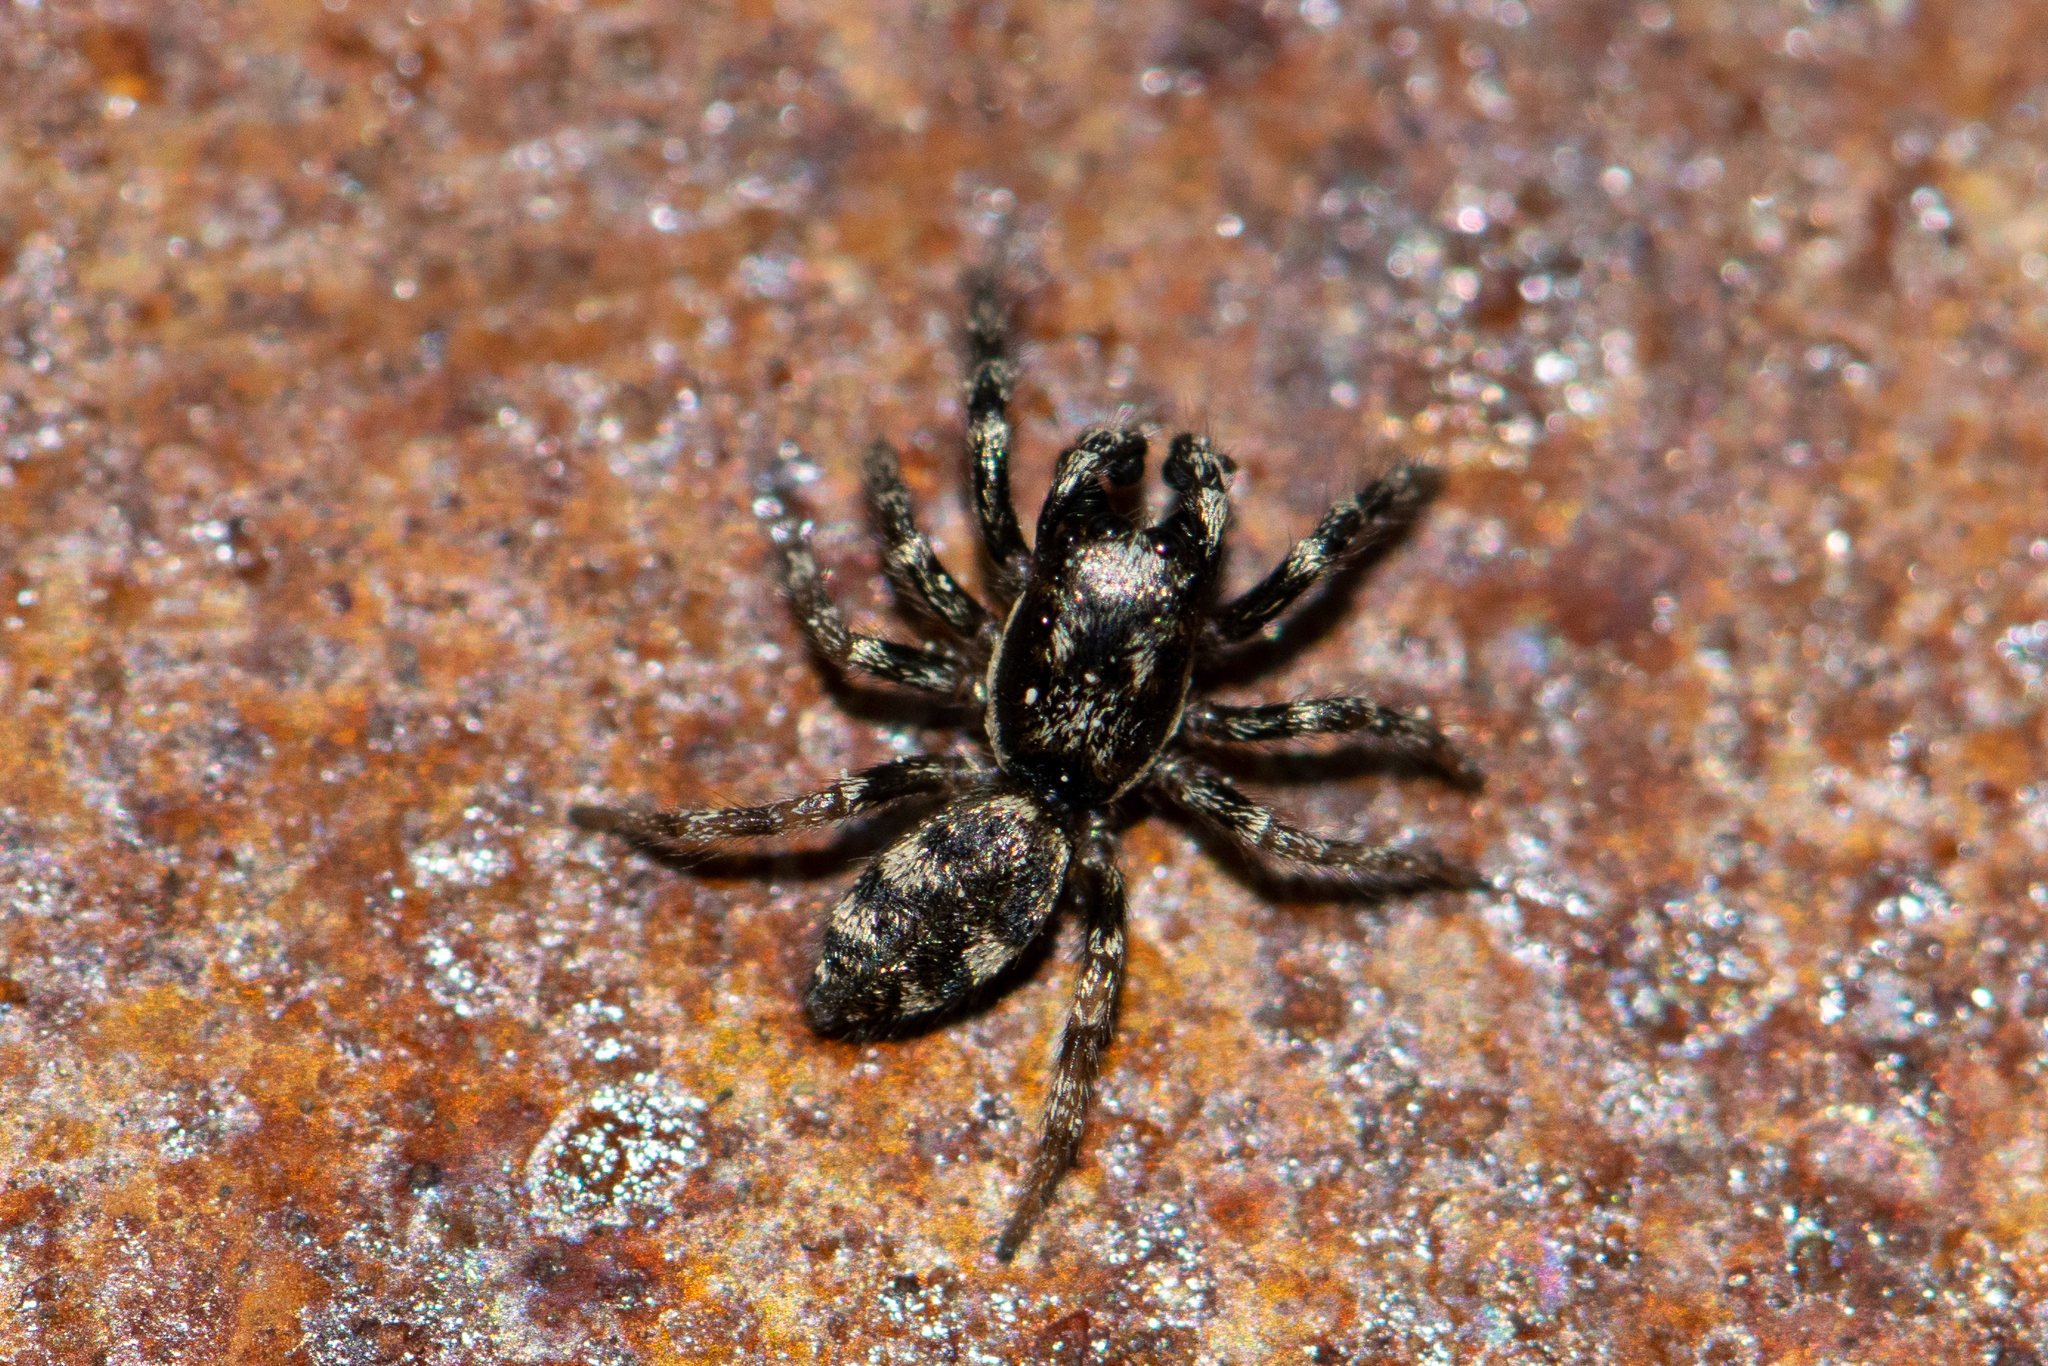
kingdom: Animalia
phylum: Arthropoda
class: Arachnida
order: Araneae
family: Salticidae
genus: Salticus
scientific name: Salticus cingulatus
